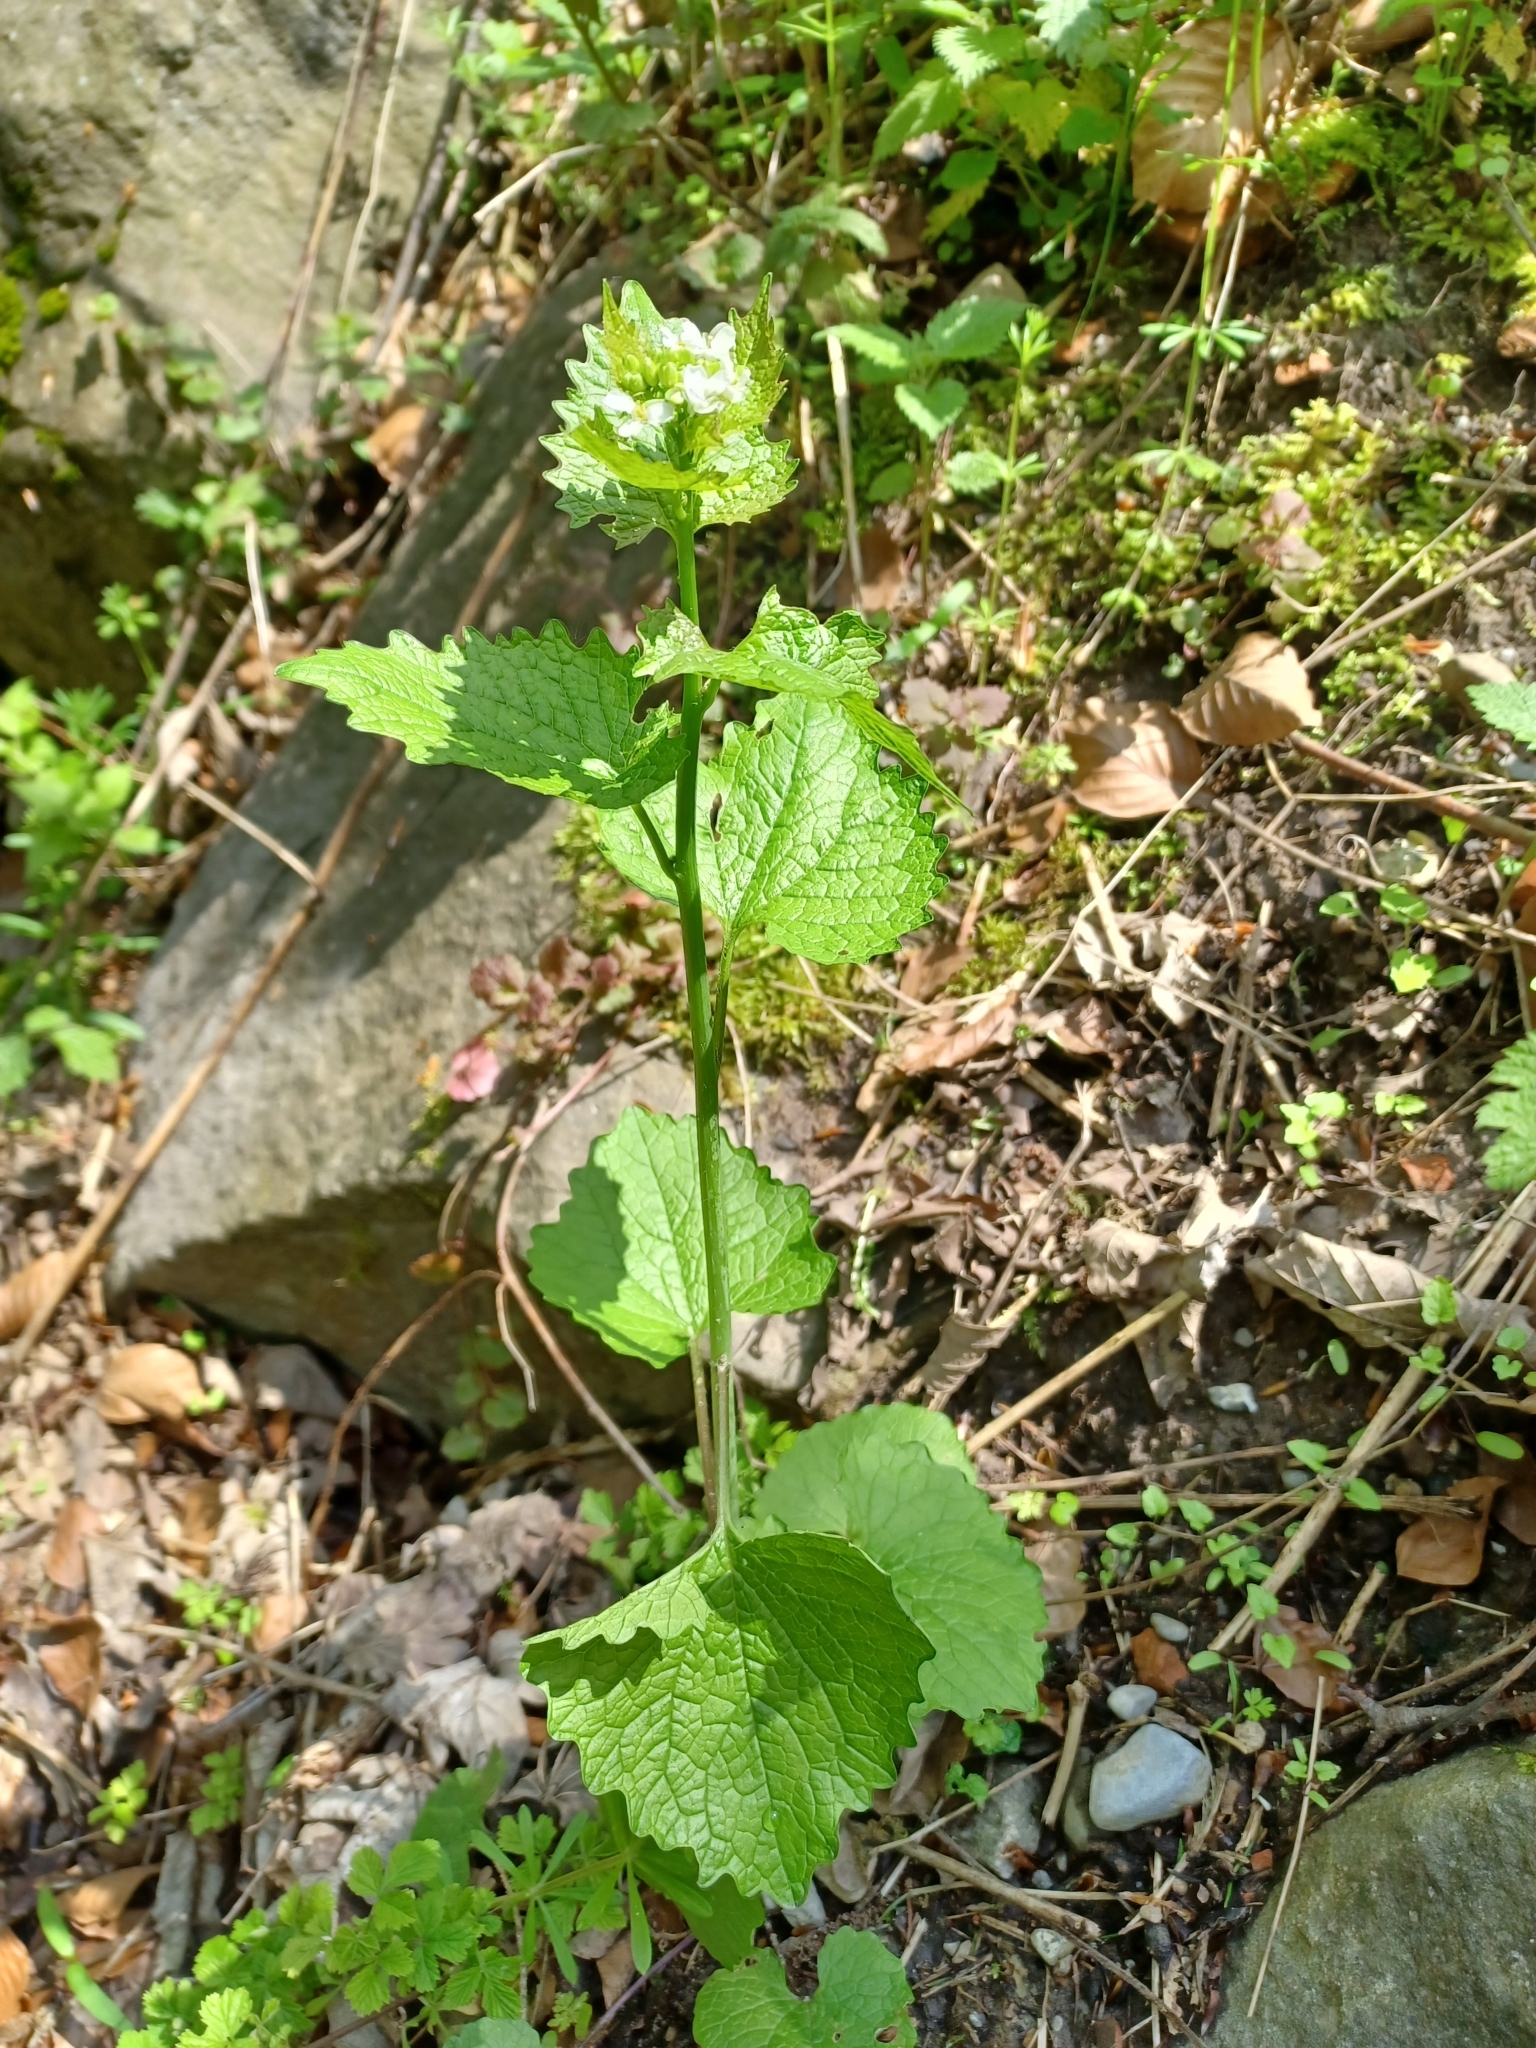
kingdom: Plantae
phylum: Tracheophyta
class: Magnoliopsida
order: Brassicales
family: Brassicaceae
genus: Alliaria
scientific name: Alliaria petiolata
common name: Garlic mustard
